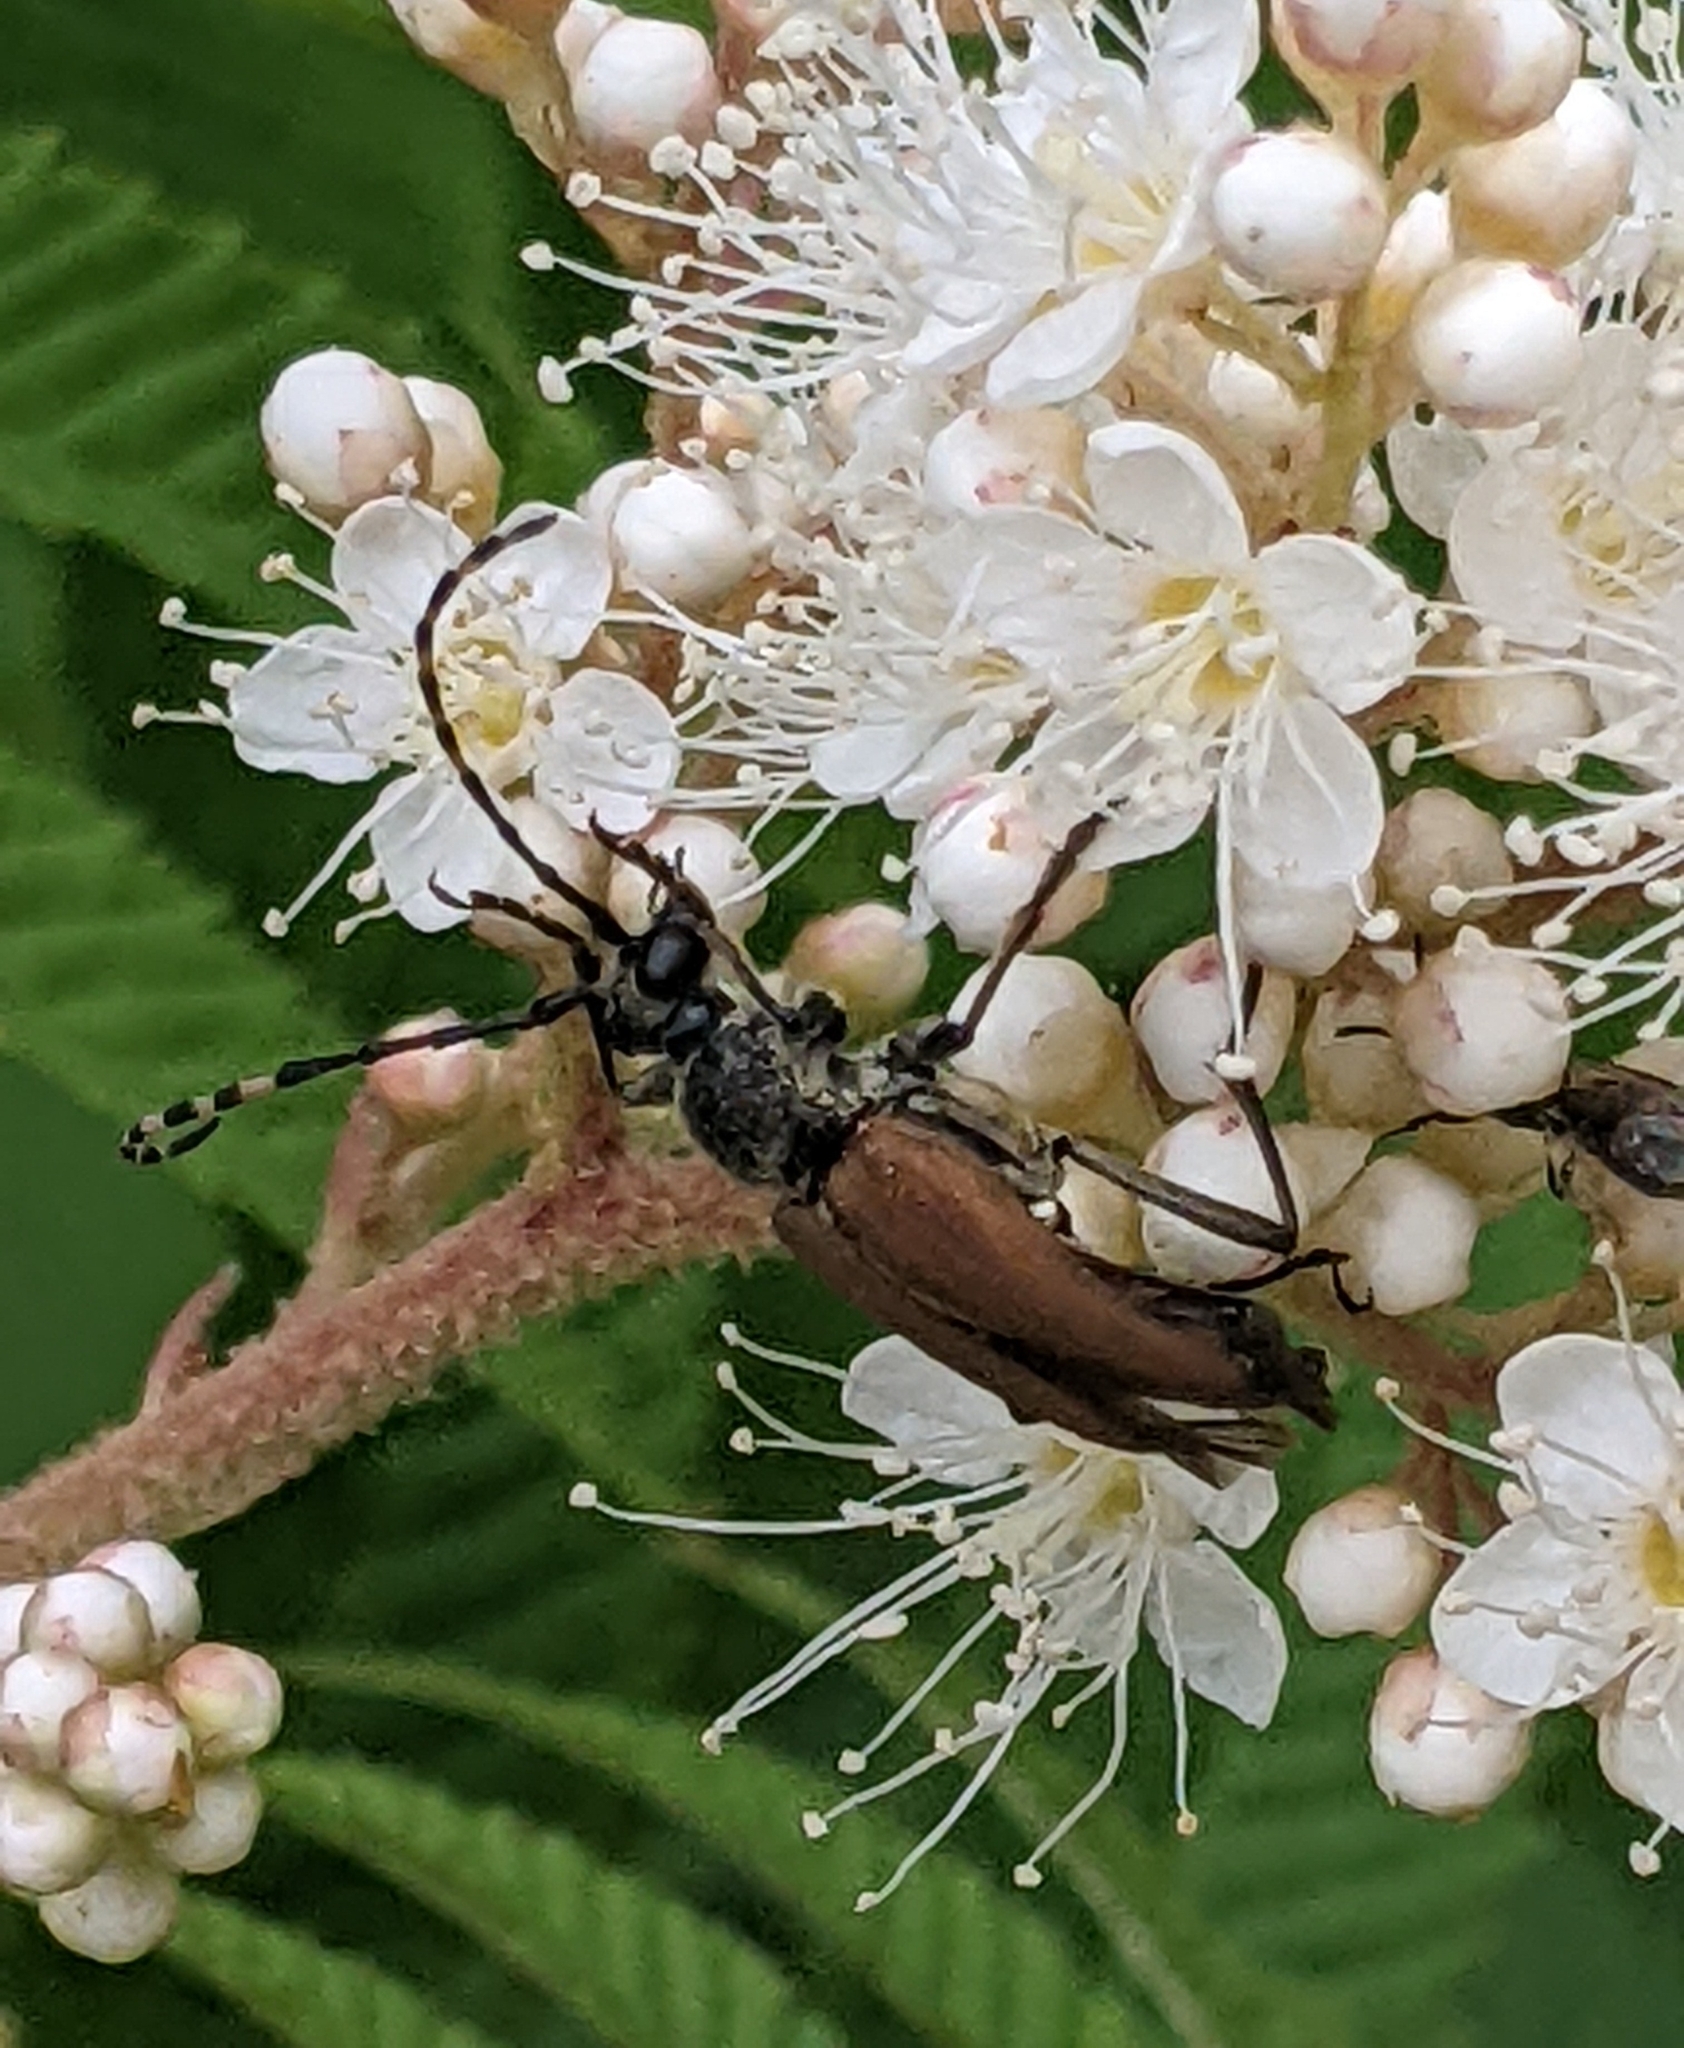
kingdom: Animalia
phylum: Arthropoda
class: Insecta
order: Coleoptera
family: Cerambycidae
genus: Brachyleptura
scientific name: Brachyleptura rubrica
